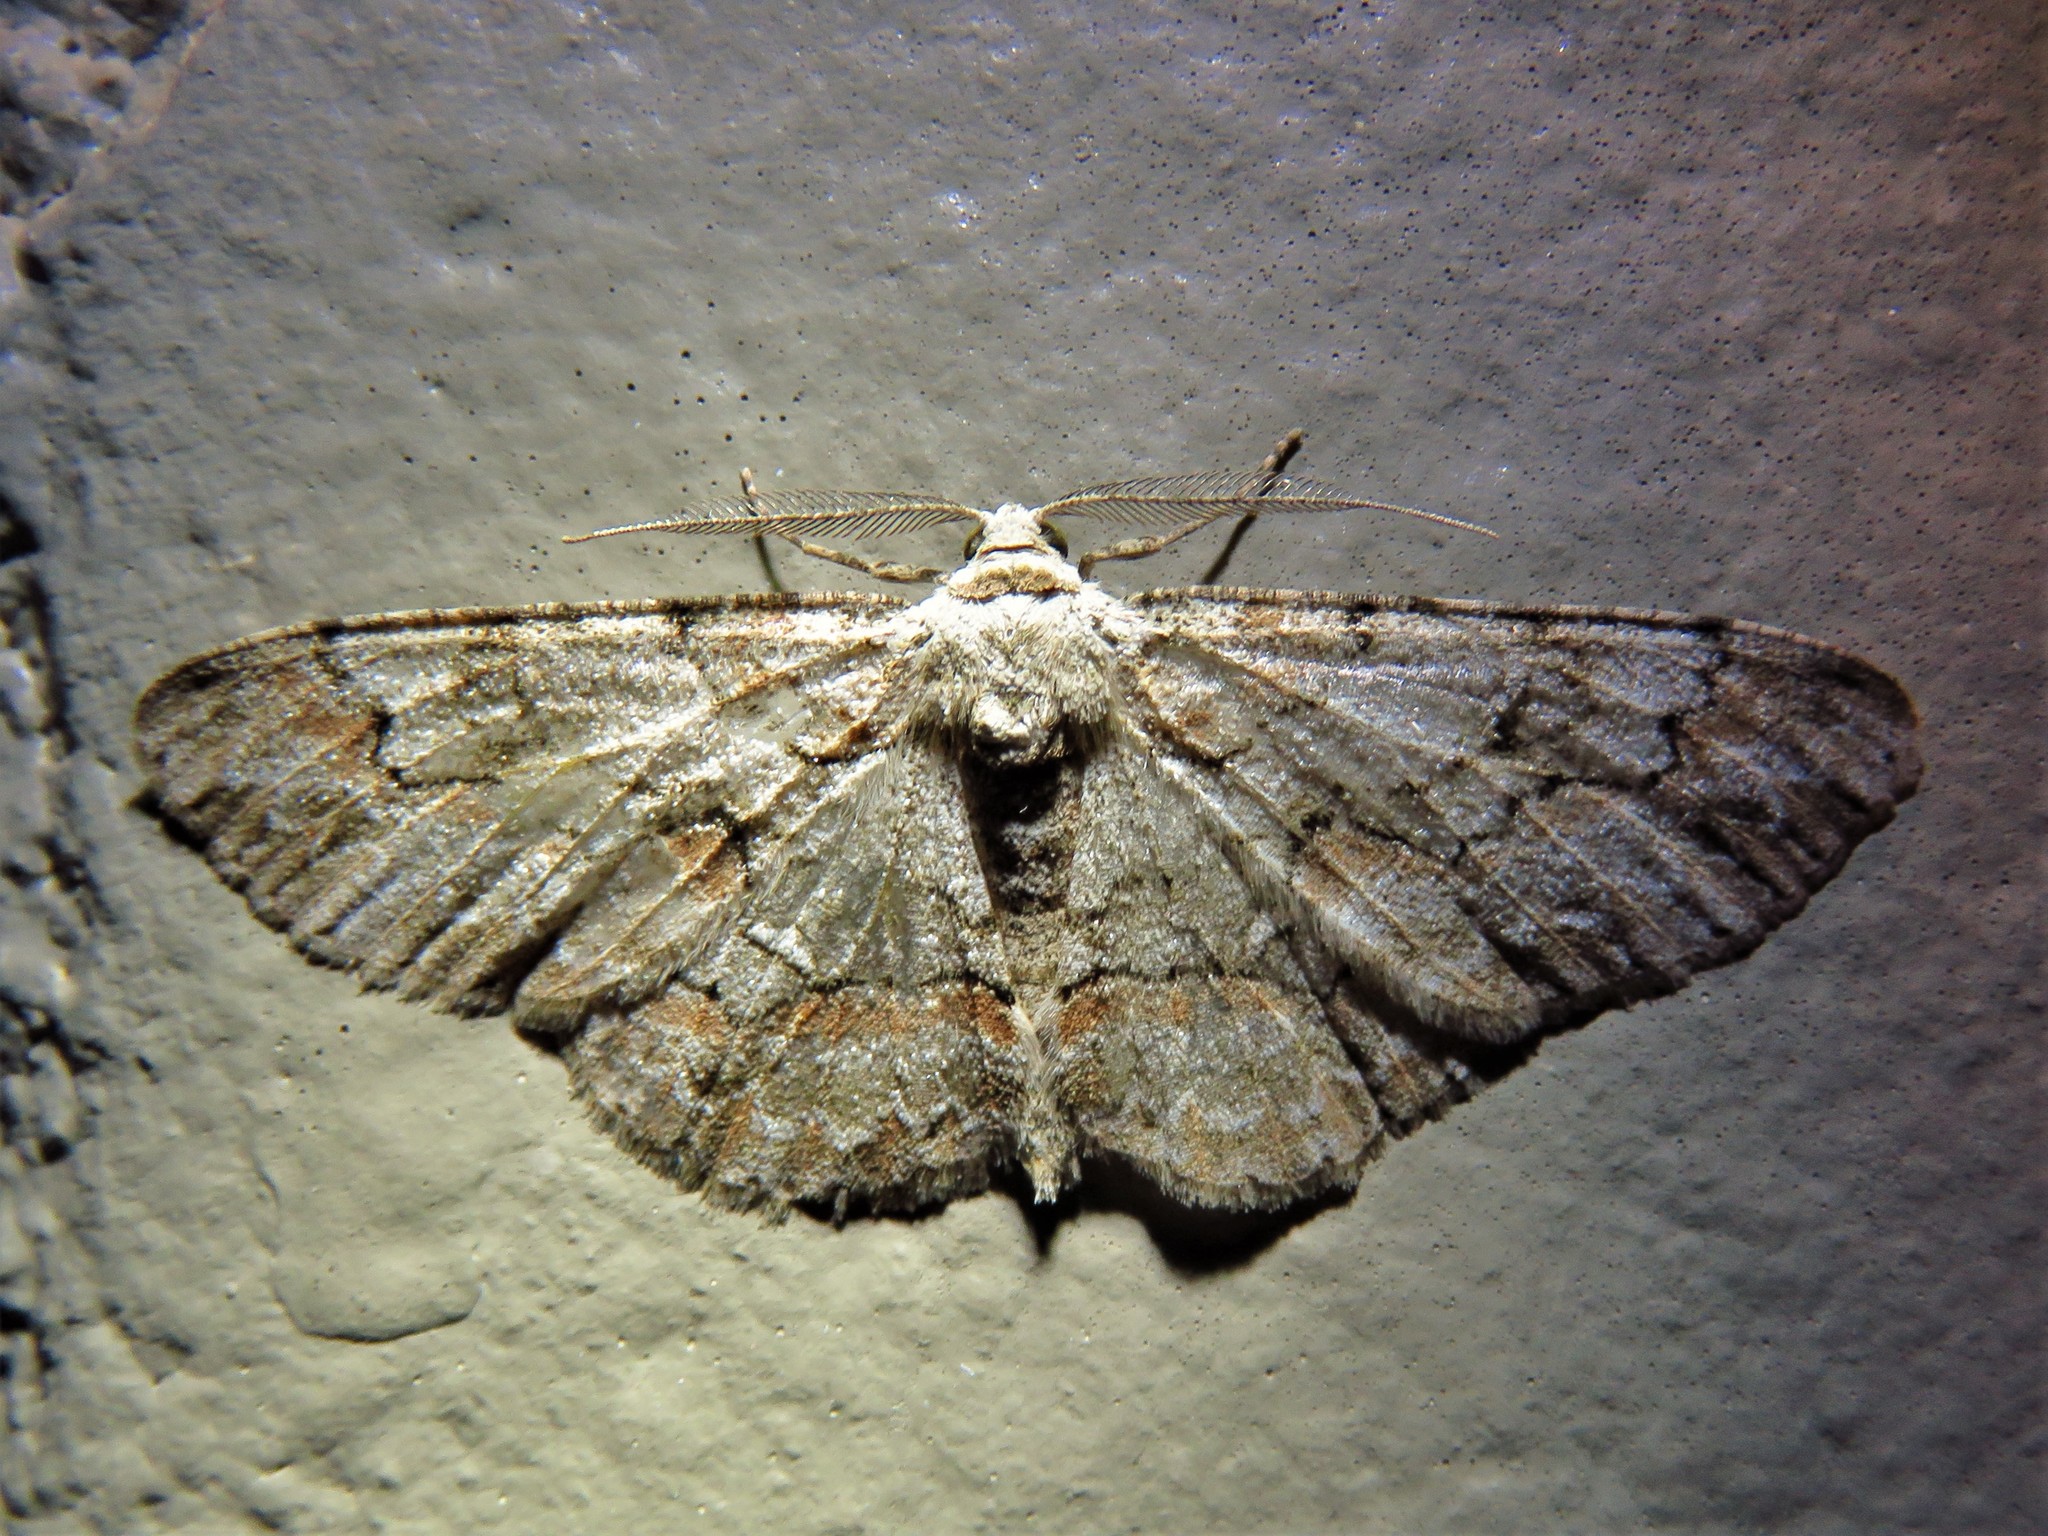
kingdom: Animalia
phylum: Arthropoda
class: Insecta
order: Lepidoptera
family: Geometridae
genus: Iridopsis
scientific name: Iridopsis defectaria
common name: Brown-shaded gray
